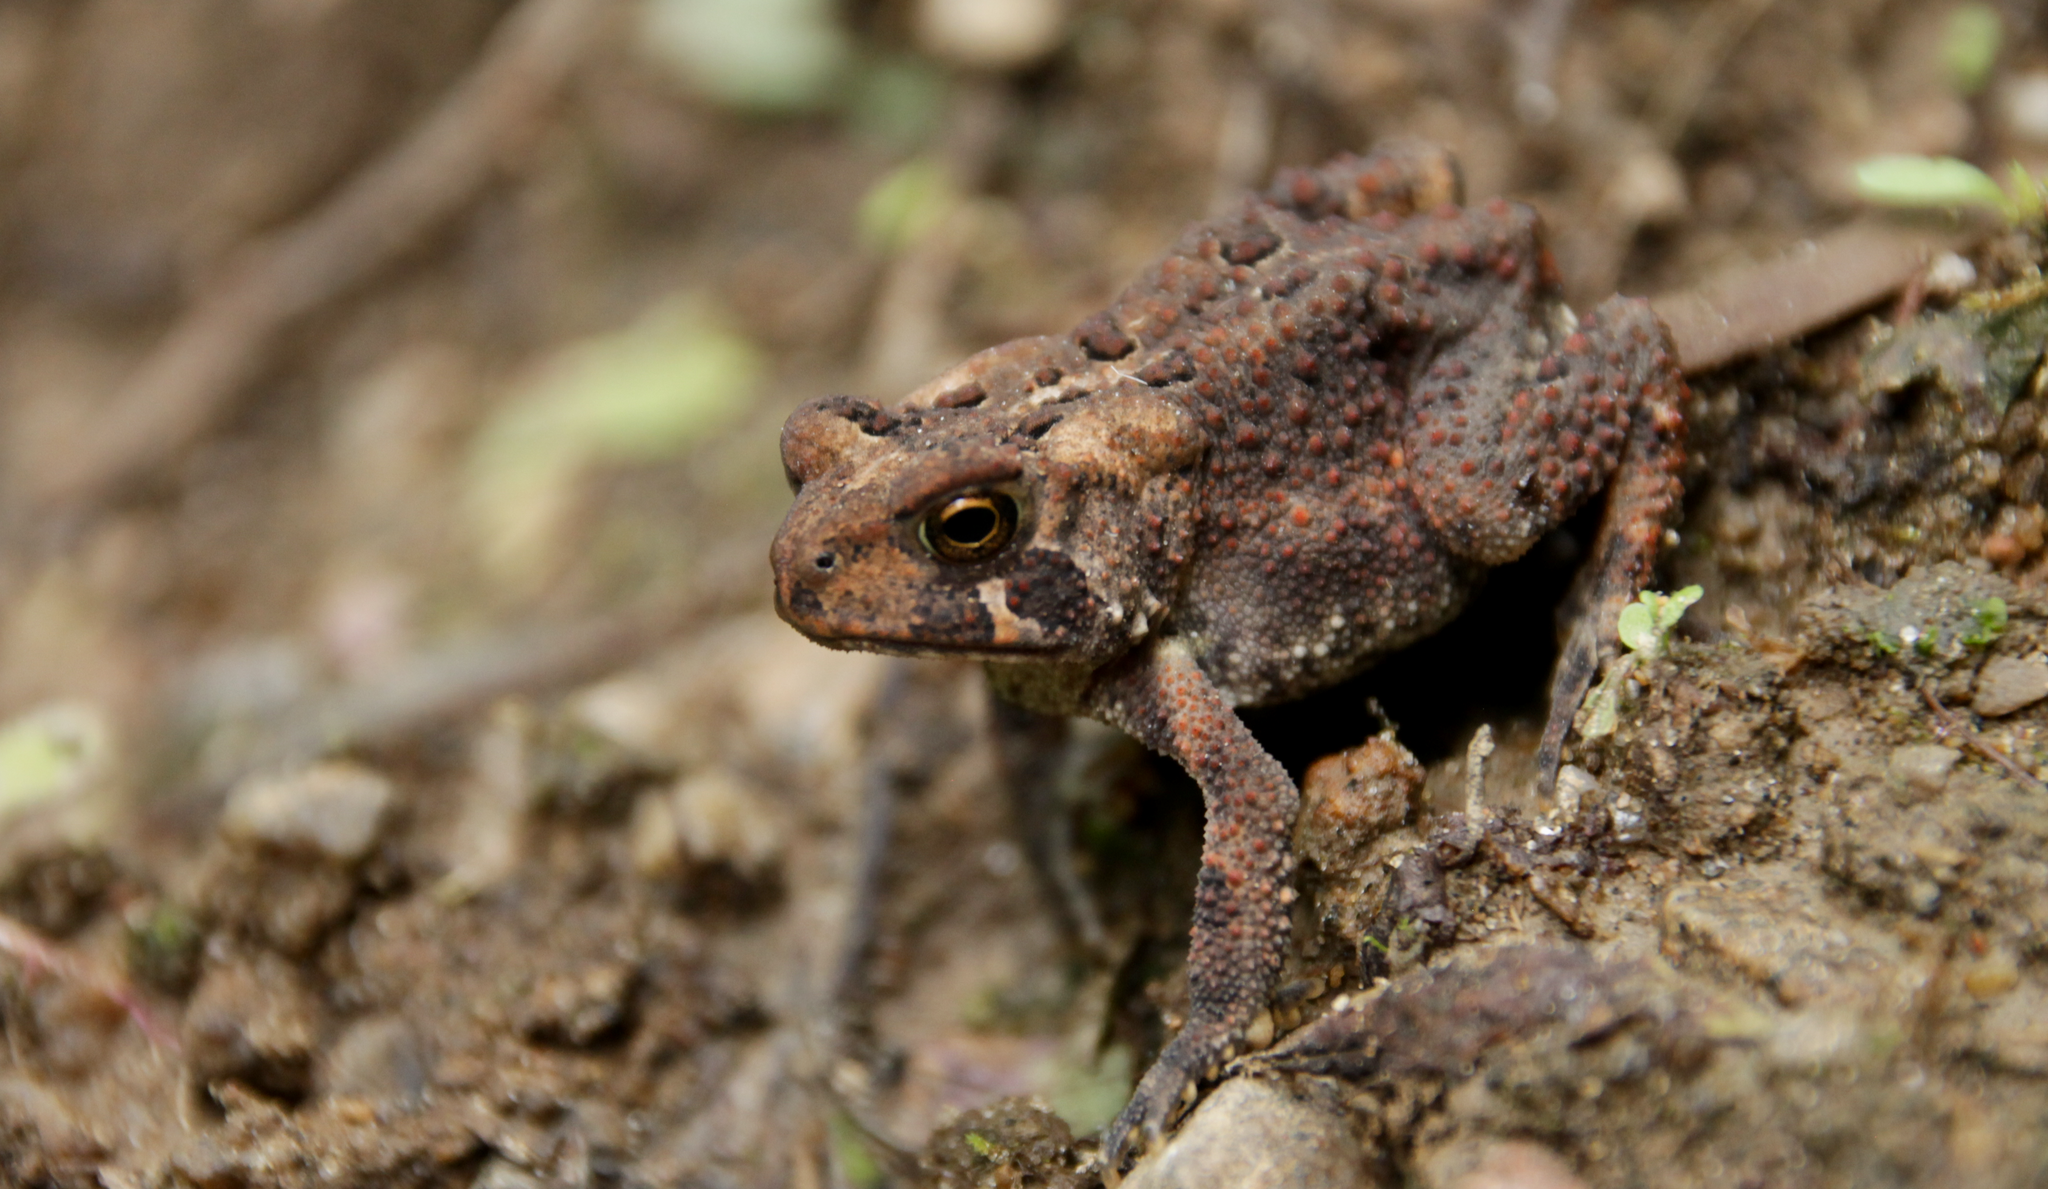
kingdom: Animalia
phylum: Chordata
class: Amphibia
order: Anura
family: Bufonidae
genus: Anaxyrus
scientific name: Anaxyrus americanus
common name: American toad
